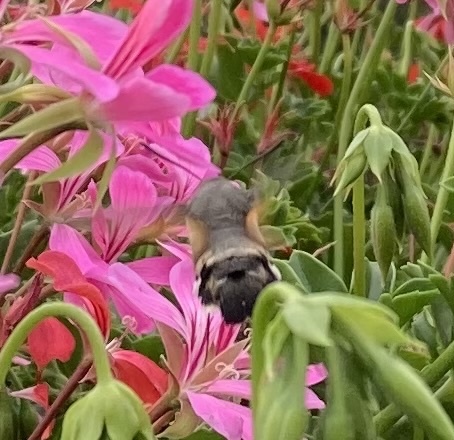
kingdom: Animalia
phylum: Arthropoda
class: Insecta
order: Lepidoptera
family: Sphingidae
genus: Macroglossum
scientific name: Macroglossum stellatarum
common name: Humming-bird hawk-moth
